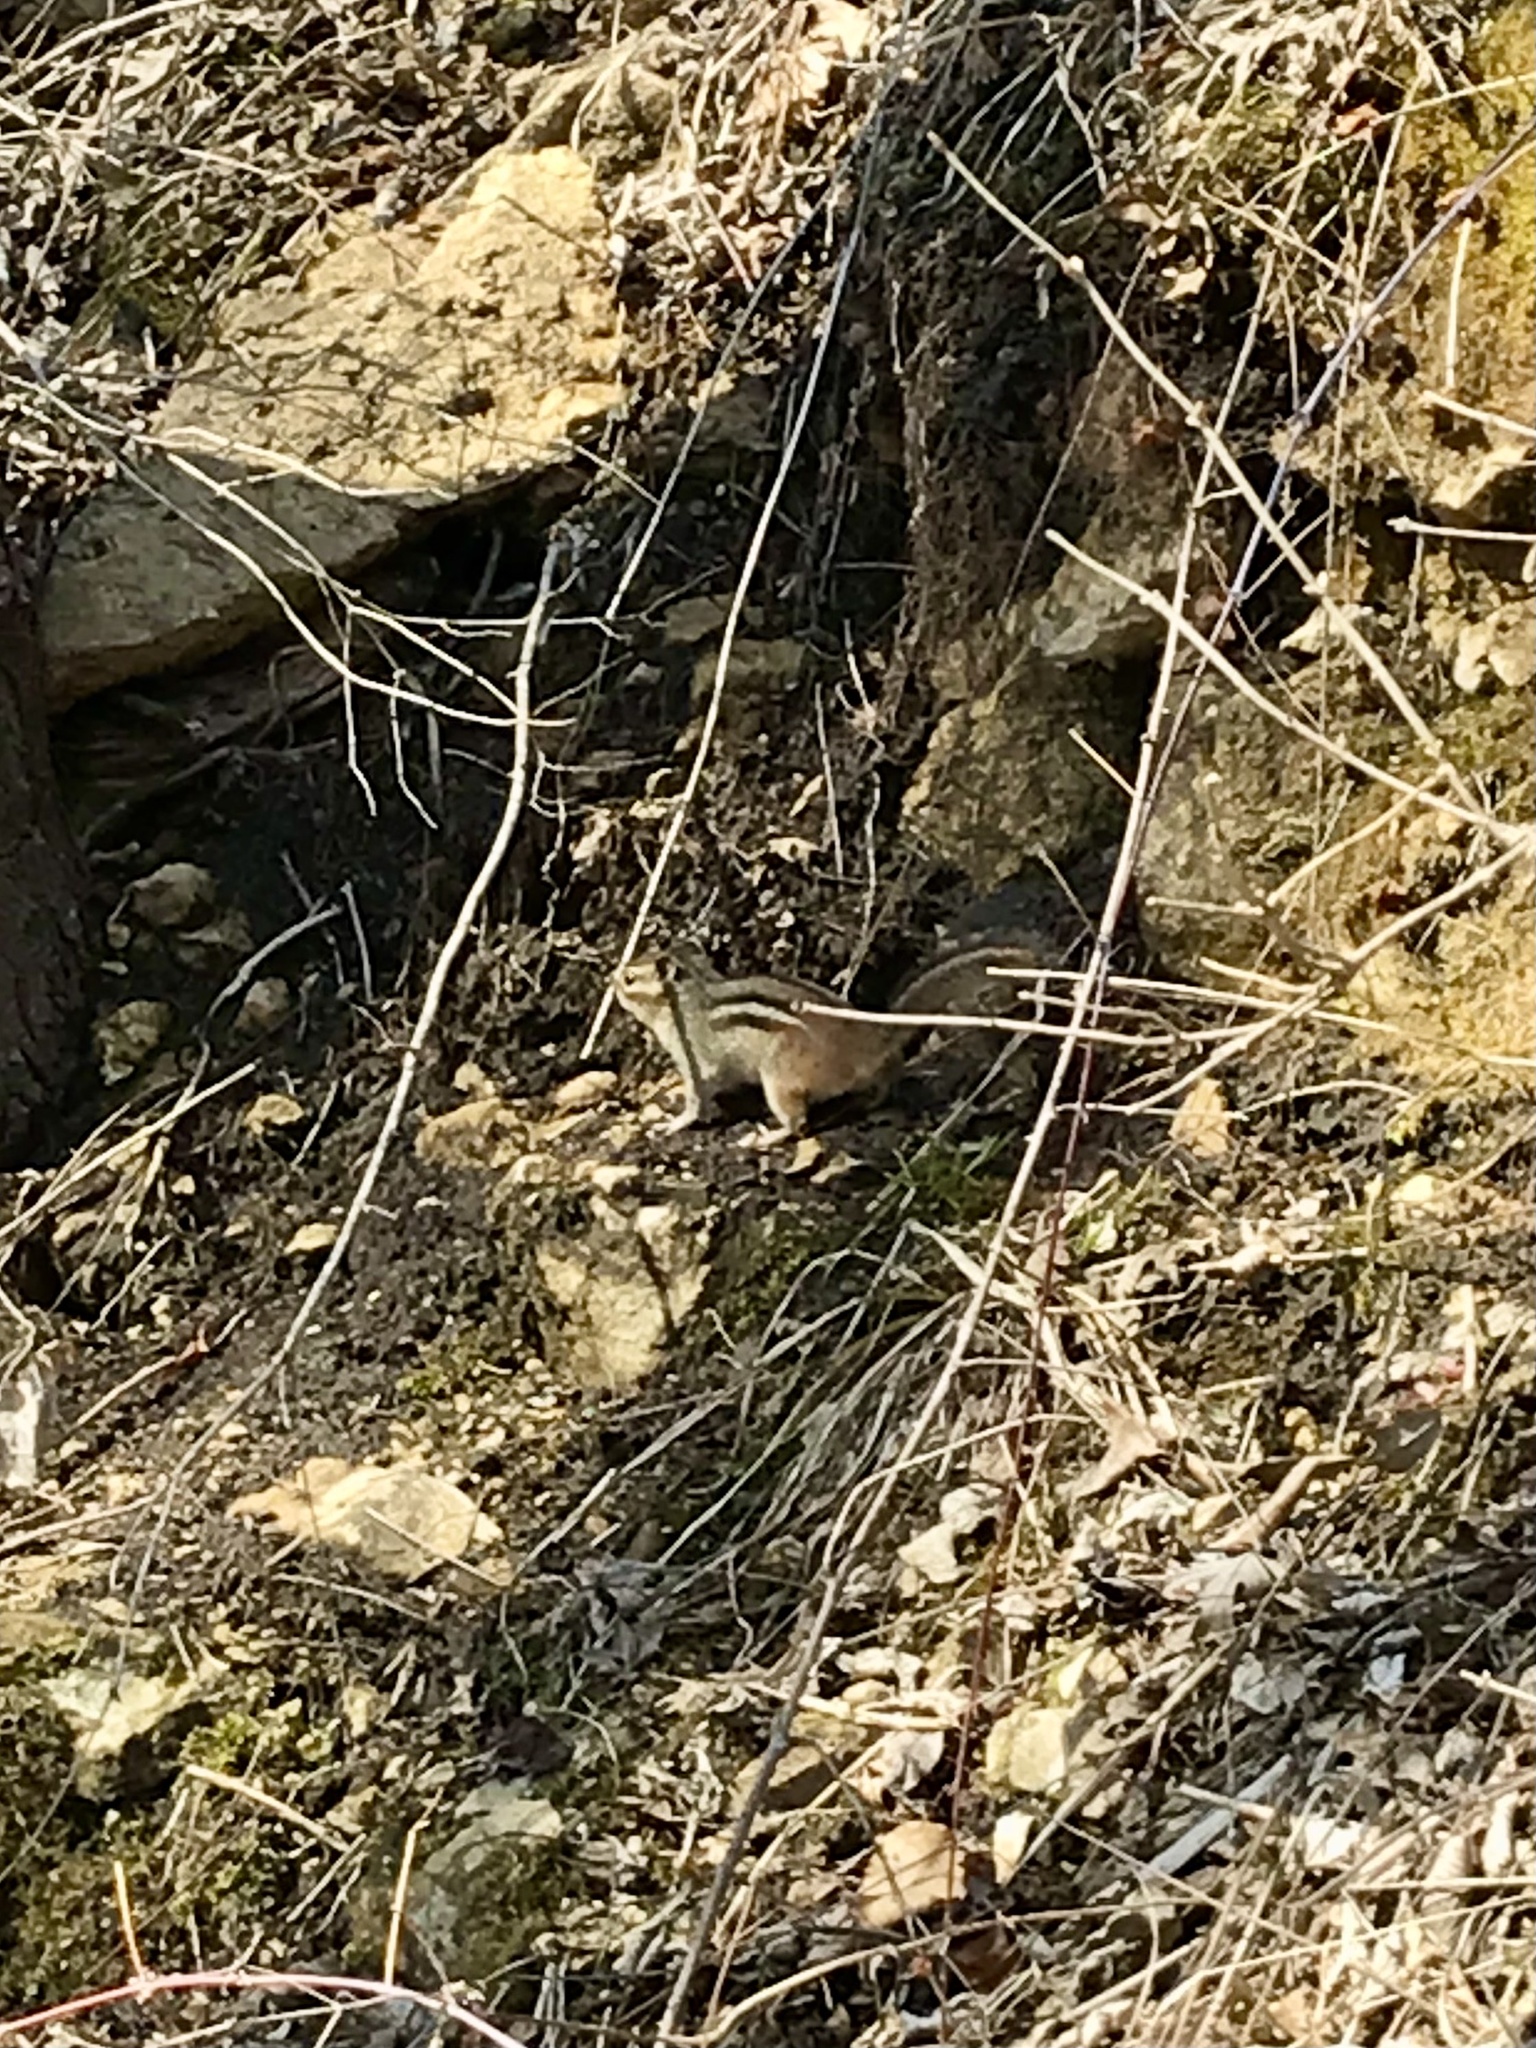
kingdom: Animalia
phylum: Chordata
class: Mammalia
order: Rodentia
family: Sciuridae
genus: Tamias
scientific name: Tamias striatus
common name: Eastern chipmunk
